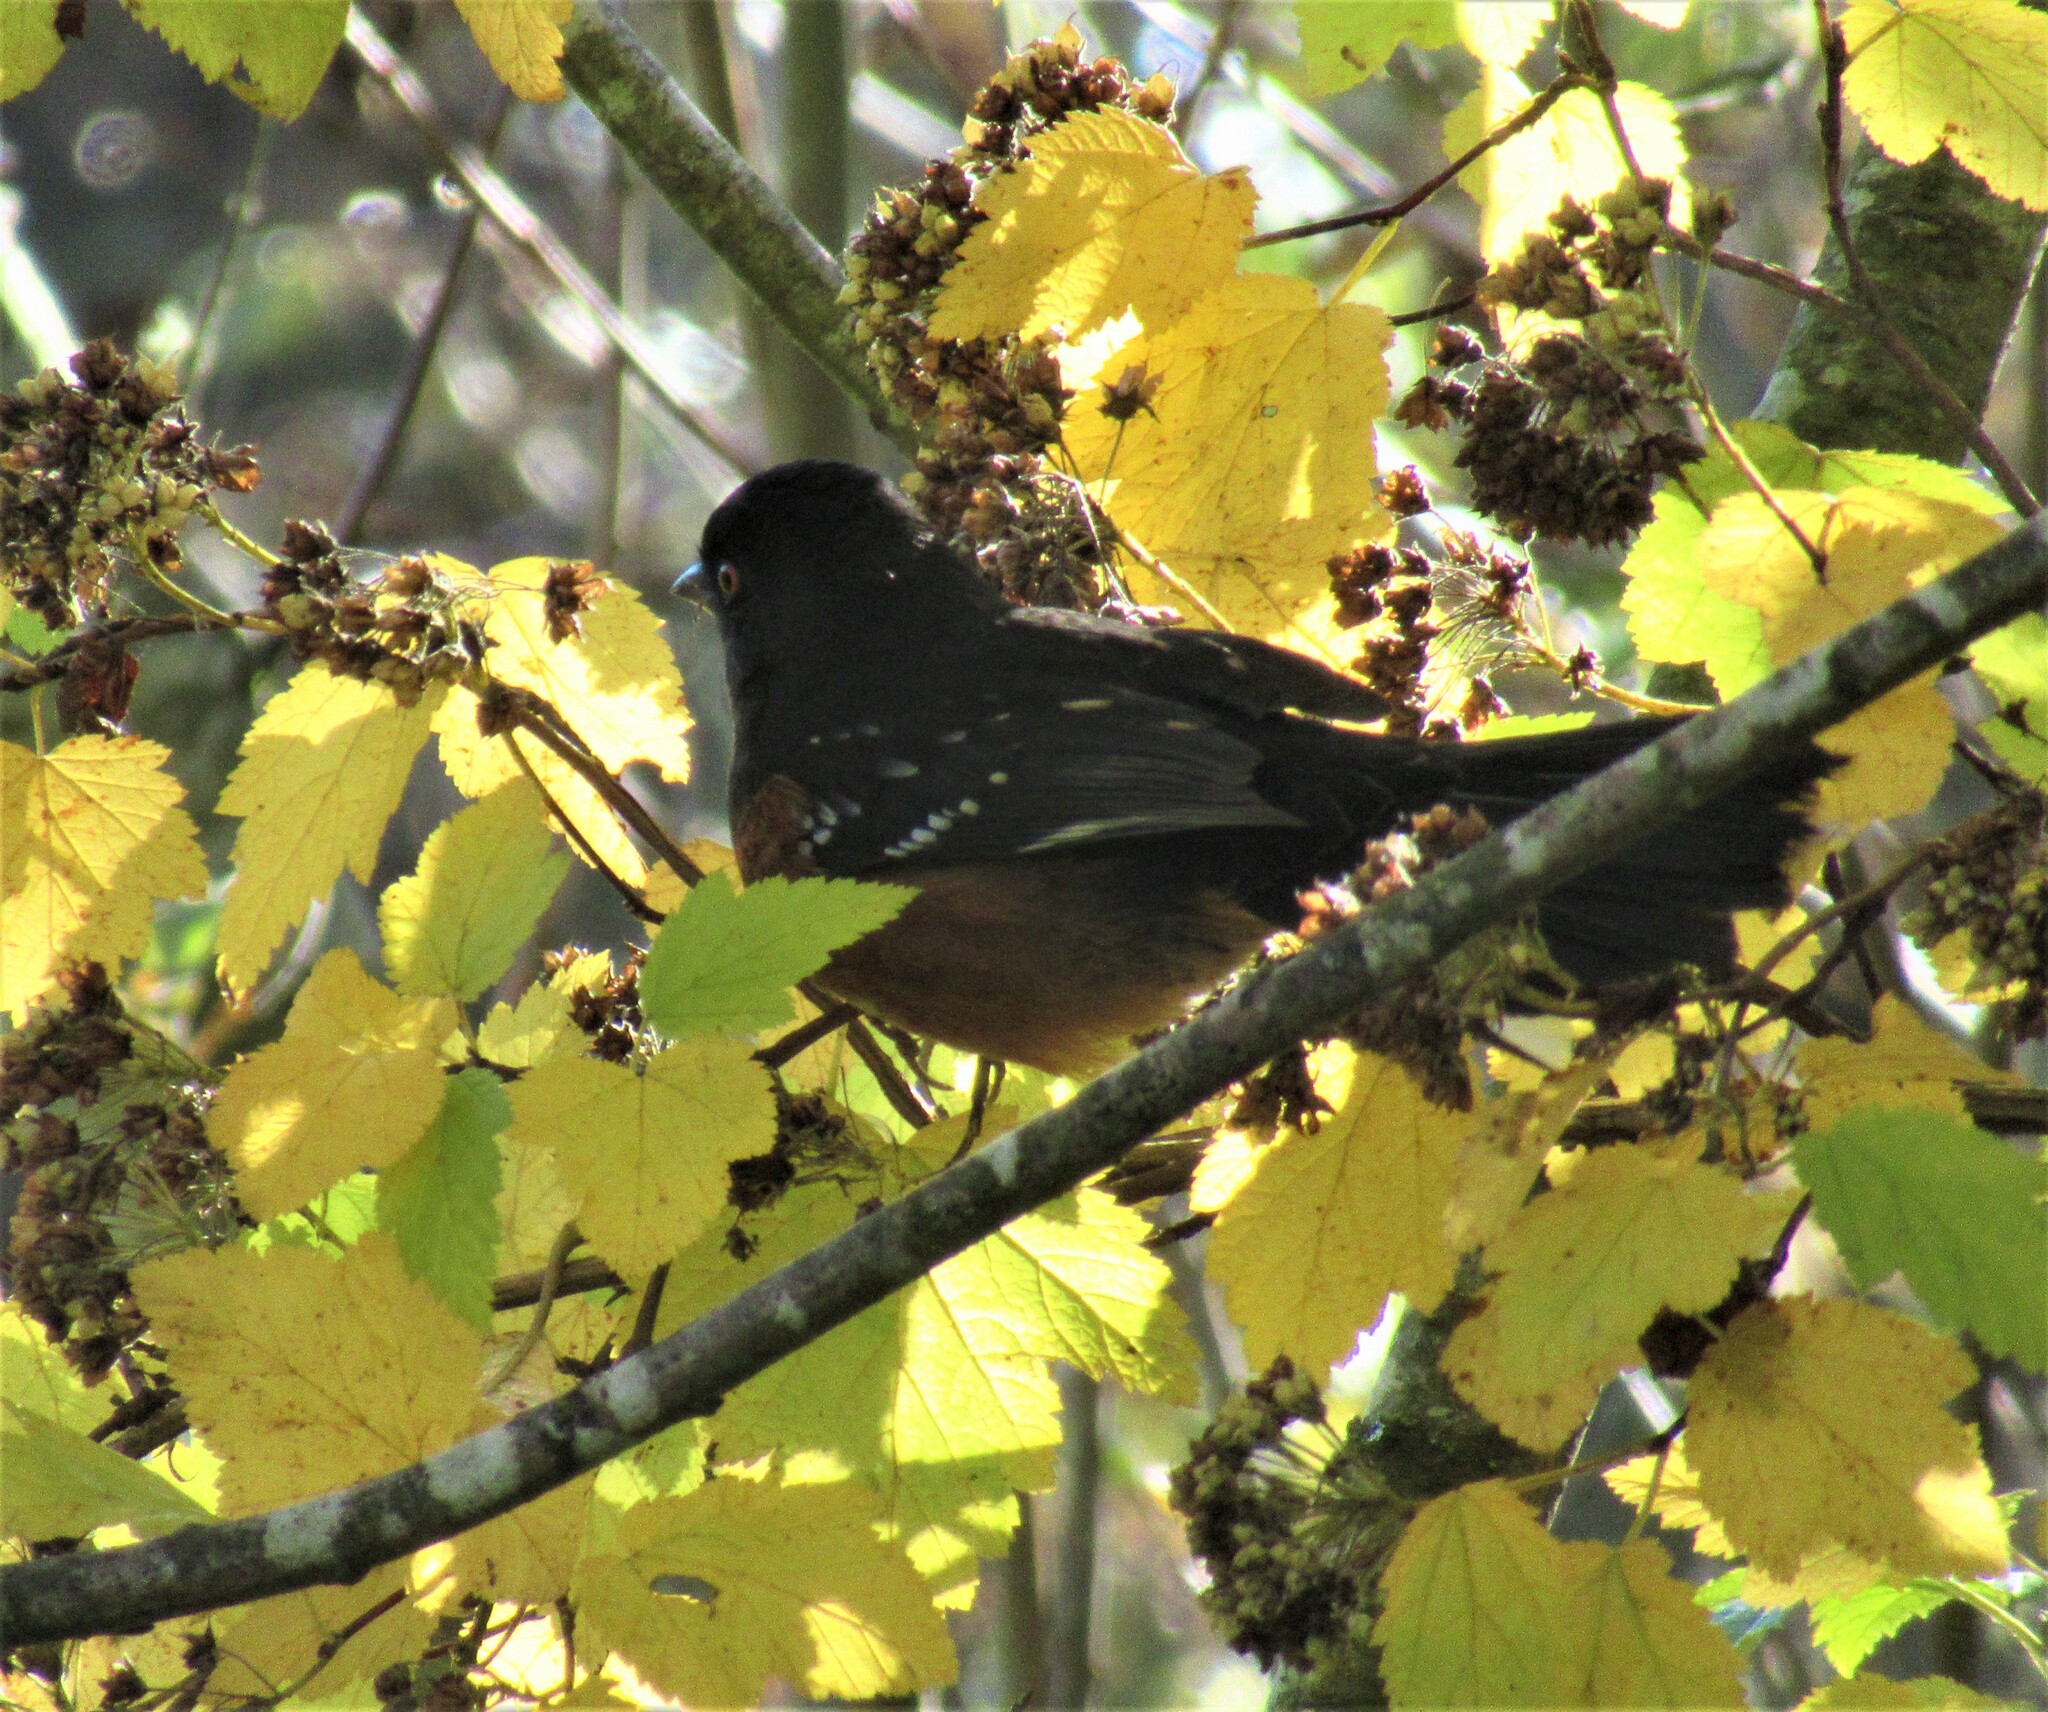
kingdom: Animalia
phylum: Chordata
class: Aves
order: Passeriformes
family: Passerellidae
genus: Pipilo
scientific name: Pipilo maculatus
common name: Spotted towhee
